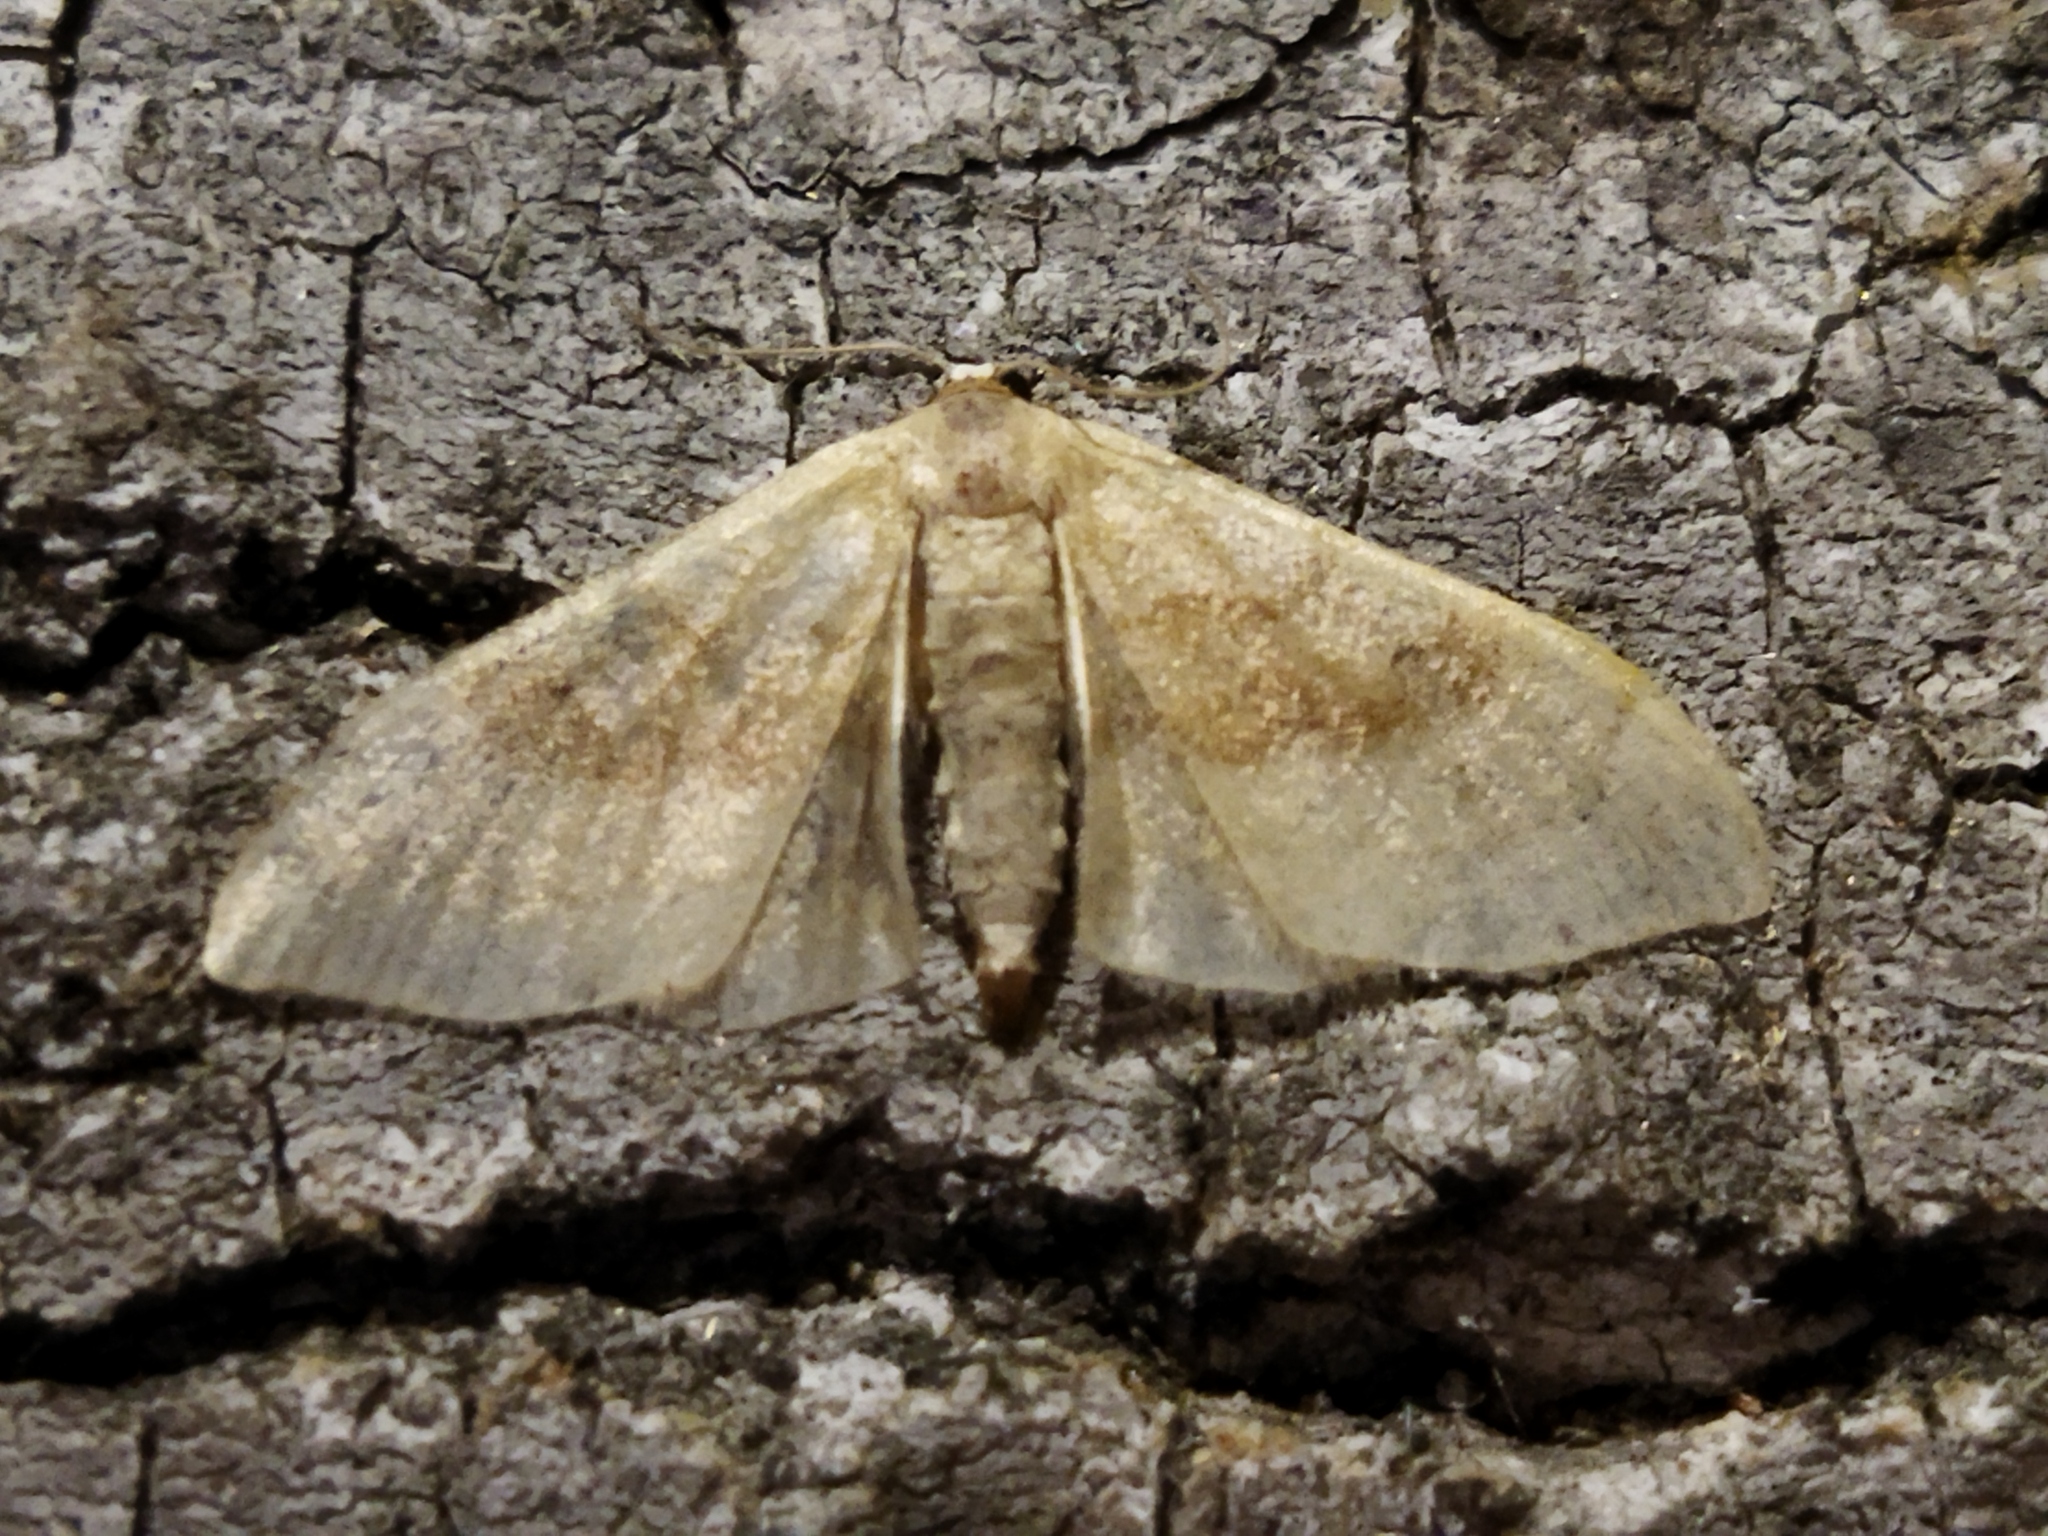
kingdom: Animalia
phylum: Arthropoda
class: Insecta
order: Lepidoptera
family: Geometridae
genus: Idaea
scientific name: Idaea degeneraria
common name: Portland ribbon wave
